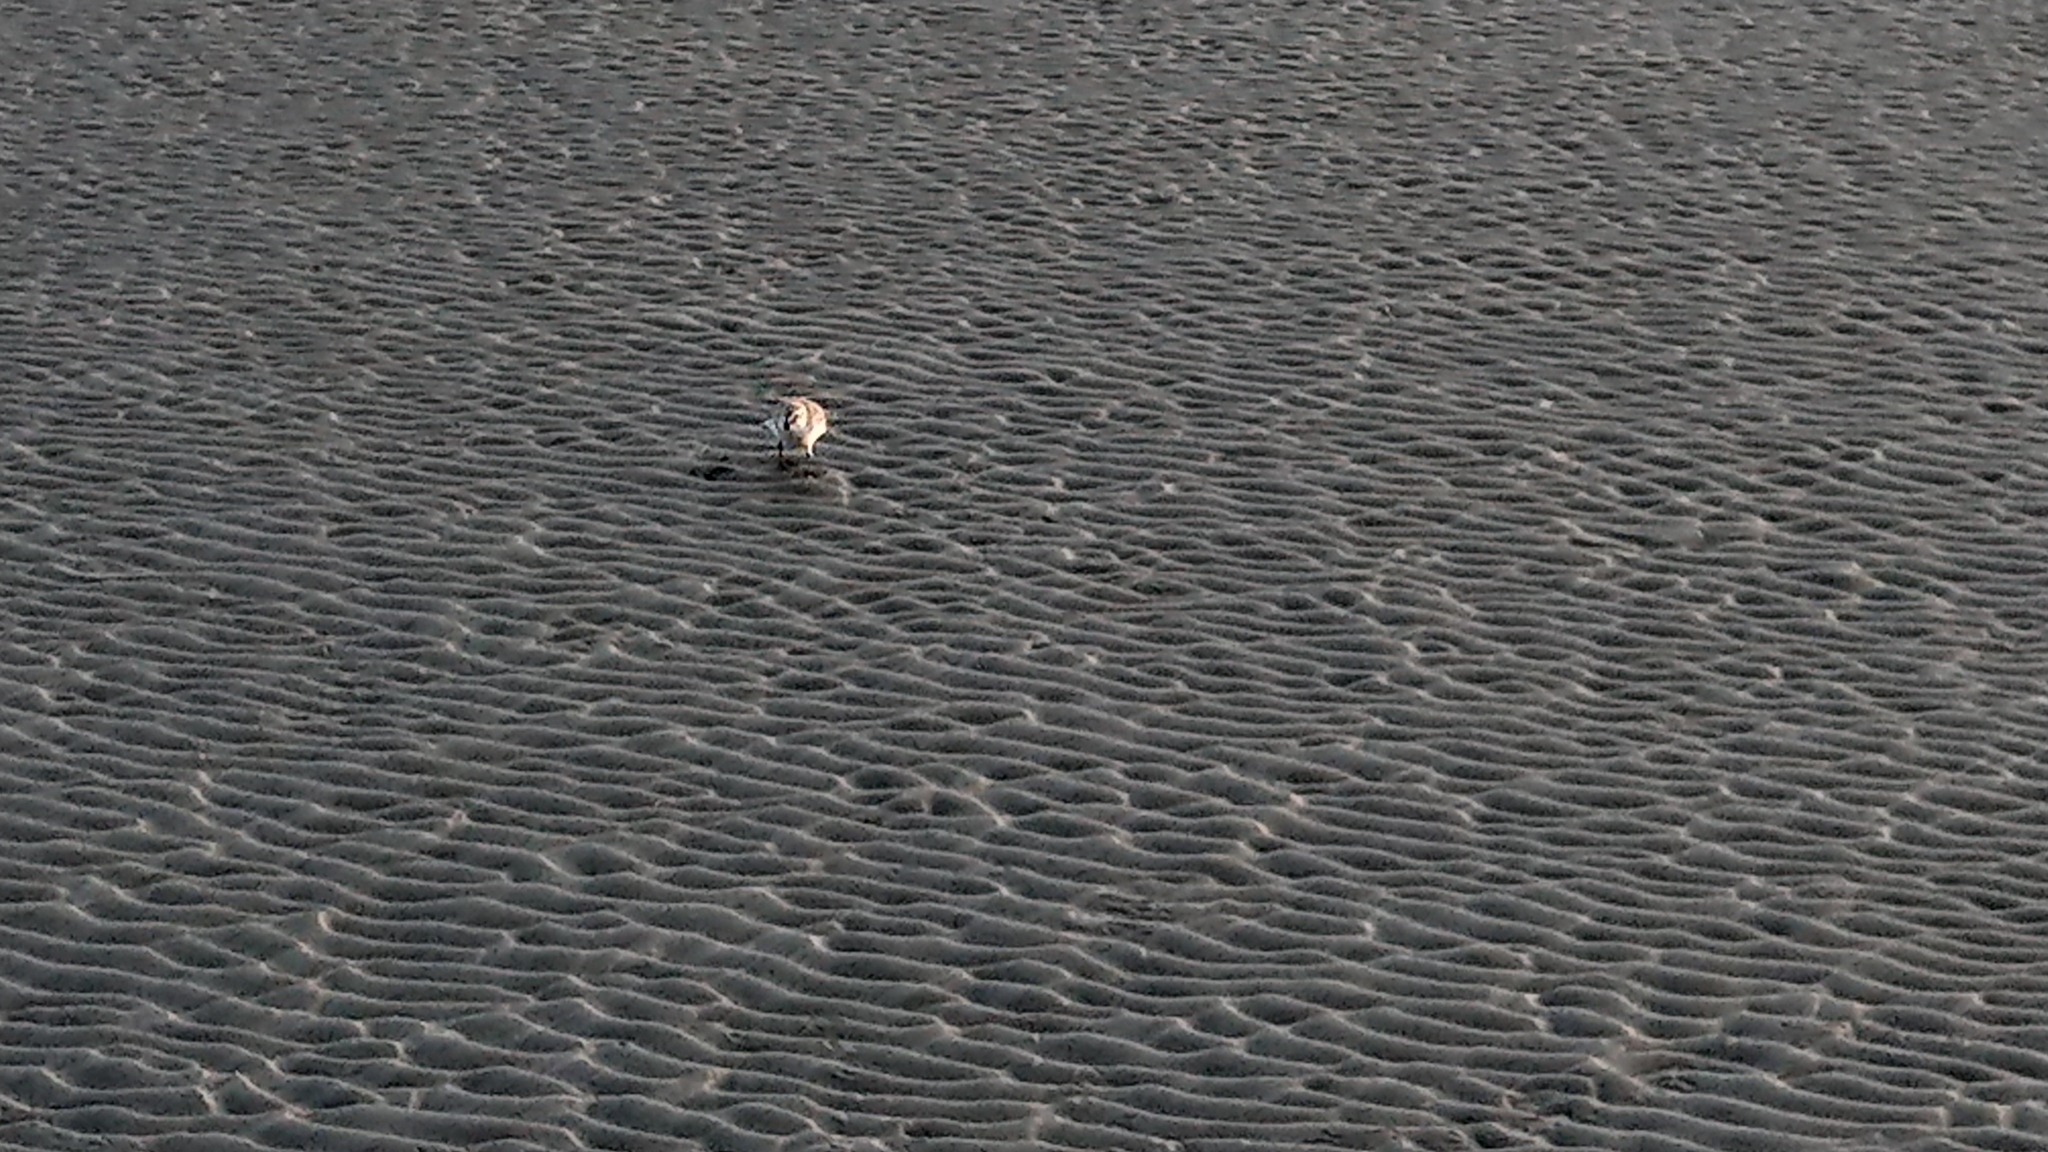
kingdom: Animalia
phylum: Chordata
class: Aves
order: Charadriiformes
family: Scolopacidae
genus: Calidris
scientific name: Calidris alpina
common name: Dunlin
